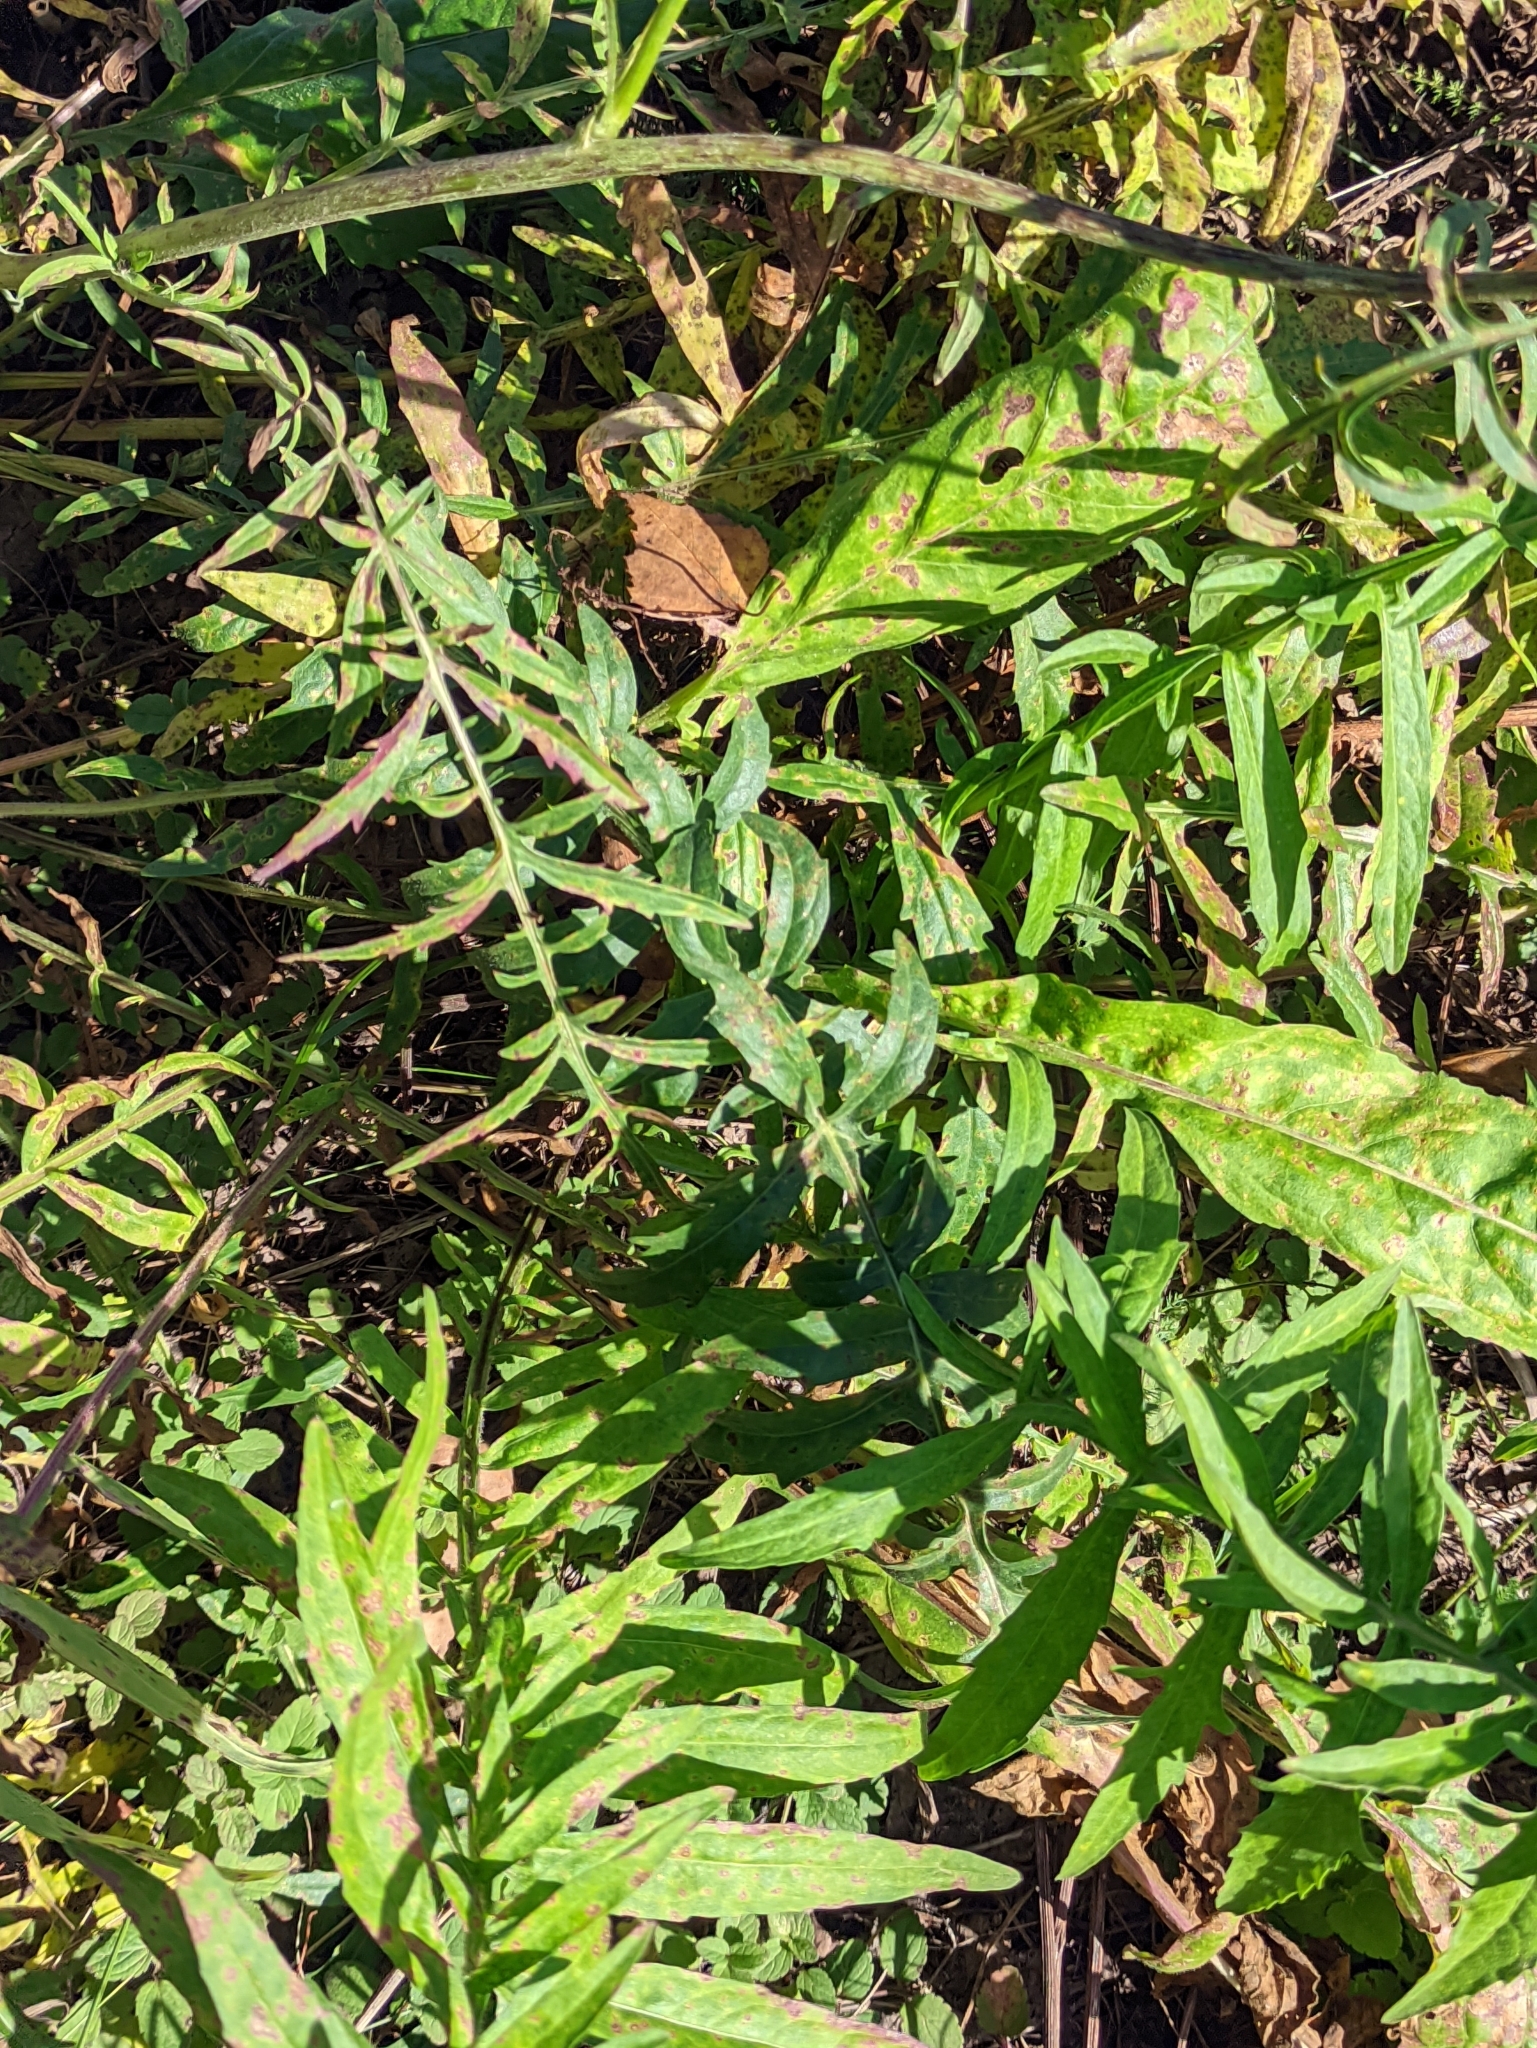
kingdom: Plantae
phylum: Tracheophyta
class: Magnoliopsida
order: Asterales
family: Asteraceae
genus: Centaurea
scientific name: Centaurea scabiosa
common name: Greater knapweed
